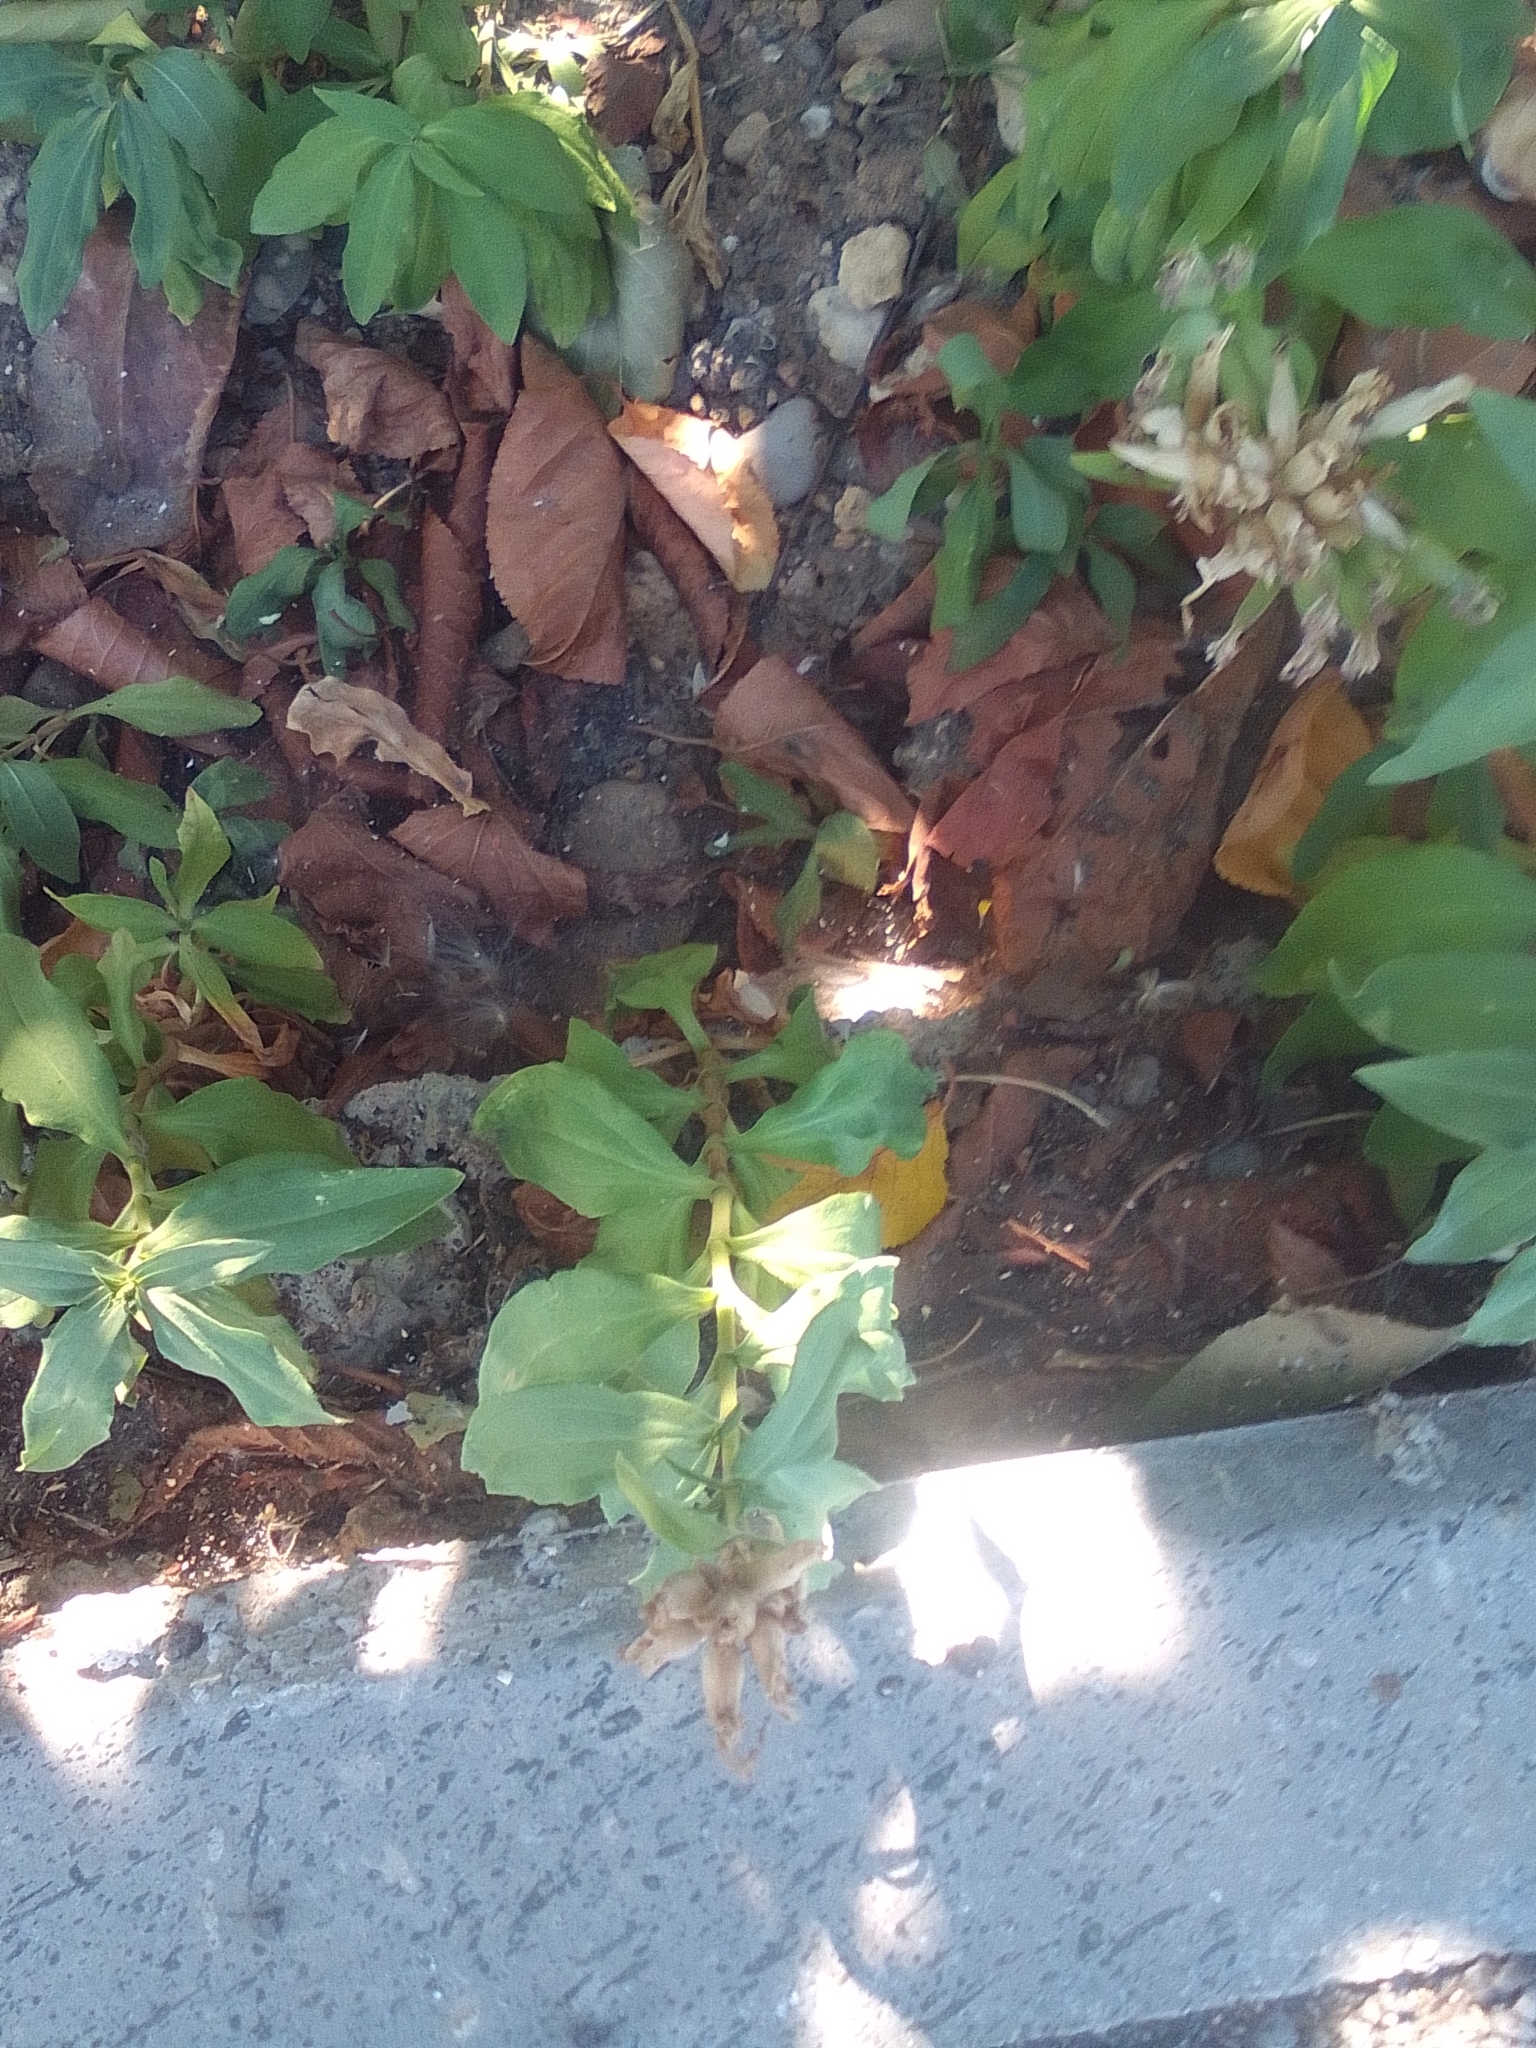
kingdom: Plantae
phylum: Tracheophyta
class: Magnoliopsida
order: Caryophyllales
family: Caryophyllaceae
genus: Saponaria
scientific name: Saponaria officinalis
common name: Soapwort
